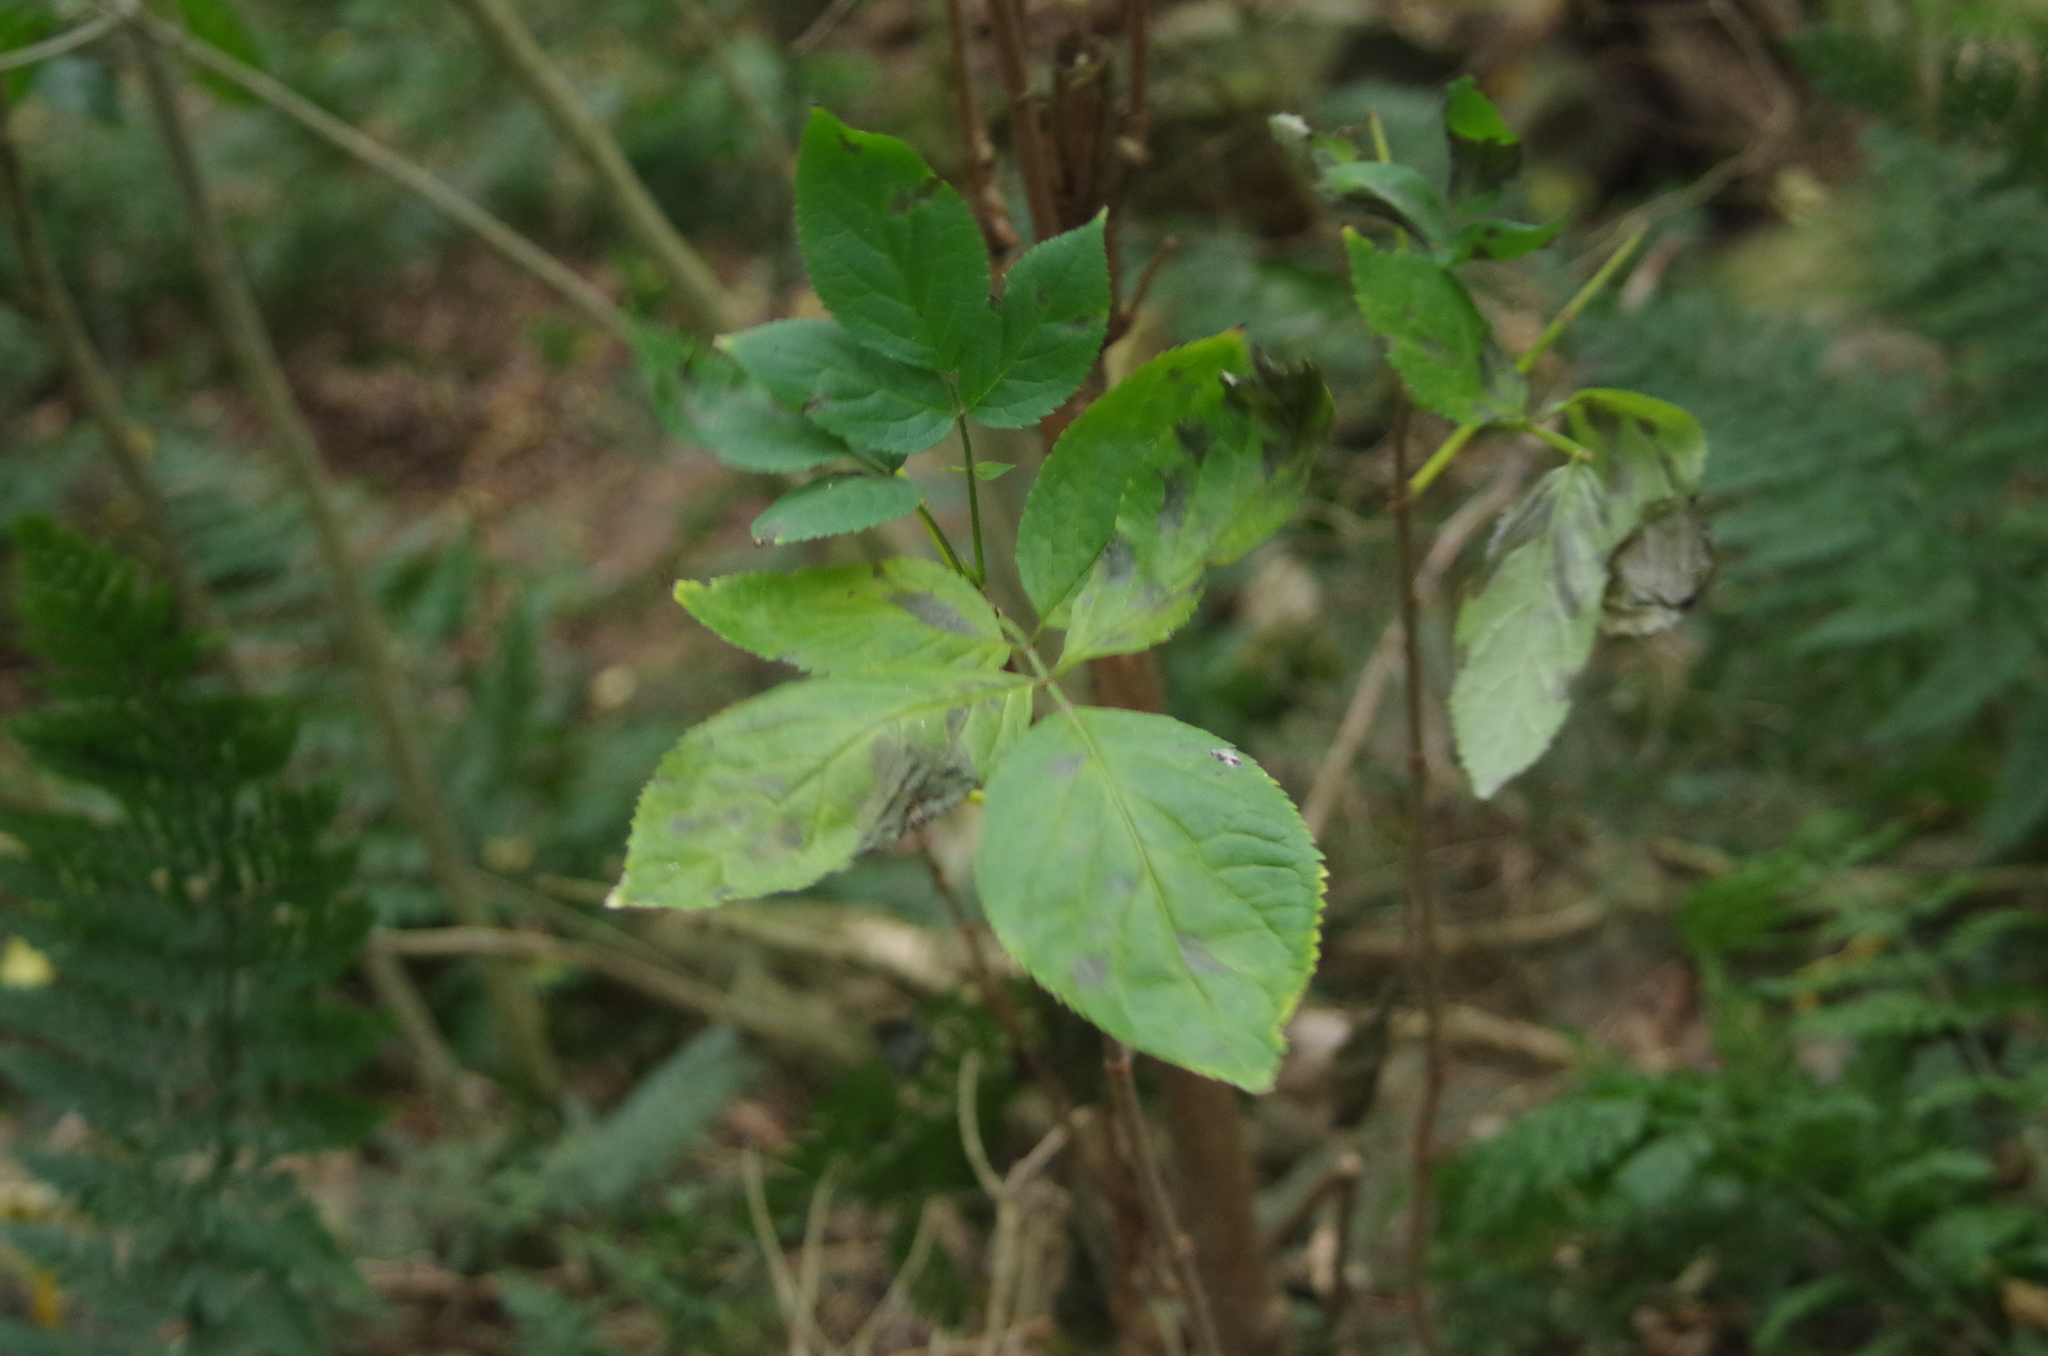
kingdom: Plantae
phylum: Tracheophyta
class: Magnoliopsida
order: Dipsacales
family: Viburnaceae
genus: Sambucus
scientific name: Sambucus nigra
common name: Elder
